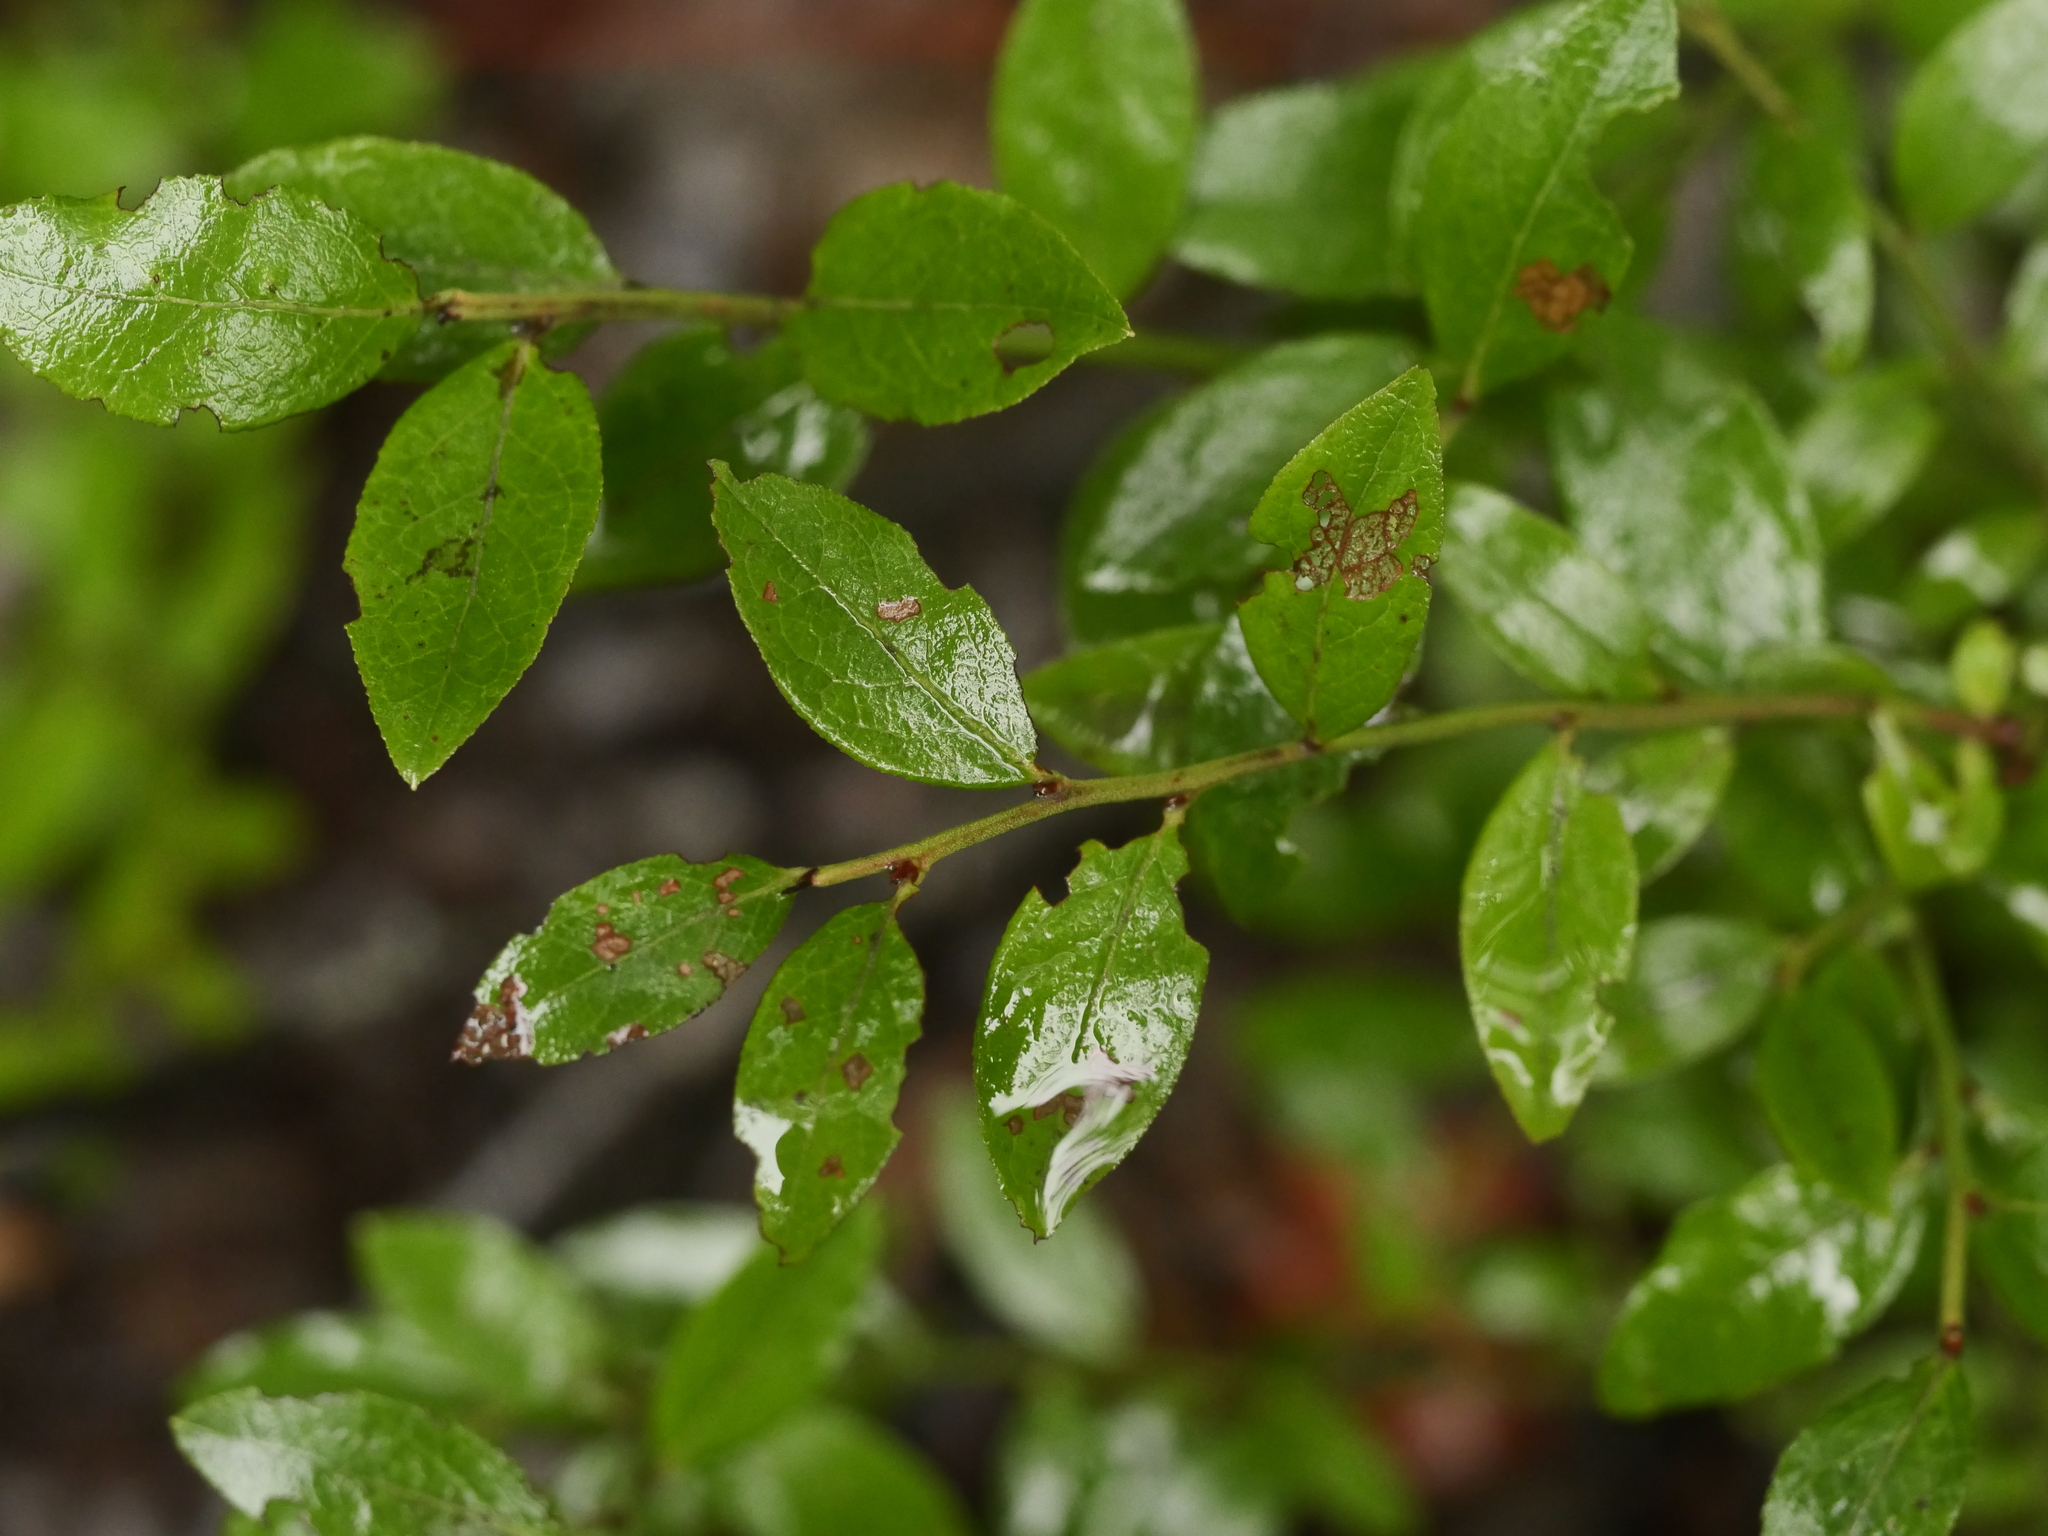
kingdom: Plantae
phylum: Tracheophyta
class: Magnoliopsida
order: Ericales
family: Ericaceae
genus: Vaccinium
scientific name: Vaccinium angustifolium
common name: Early lowbush blueberry
